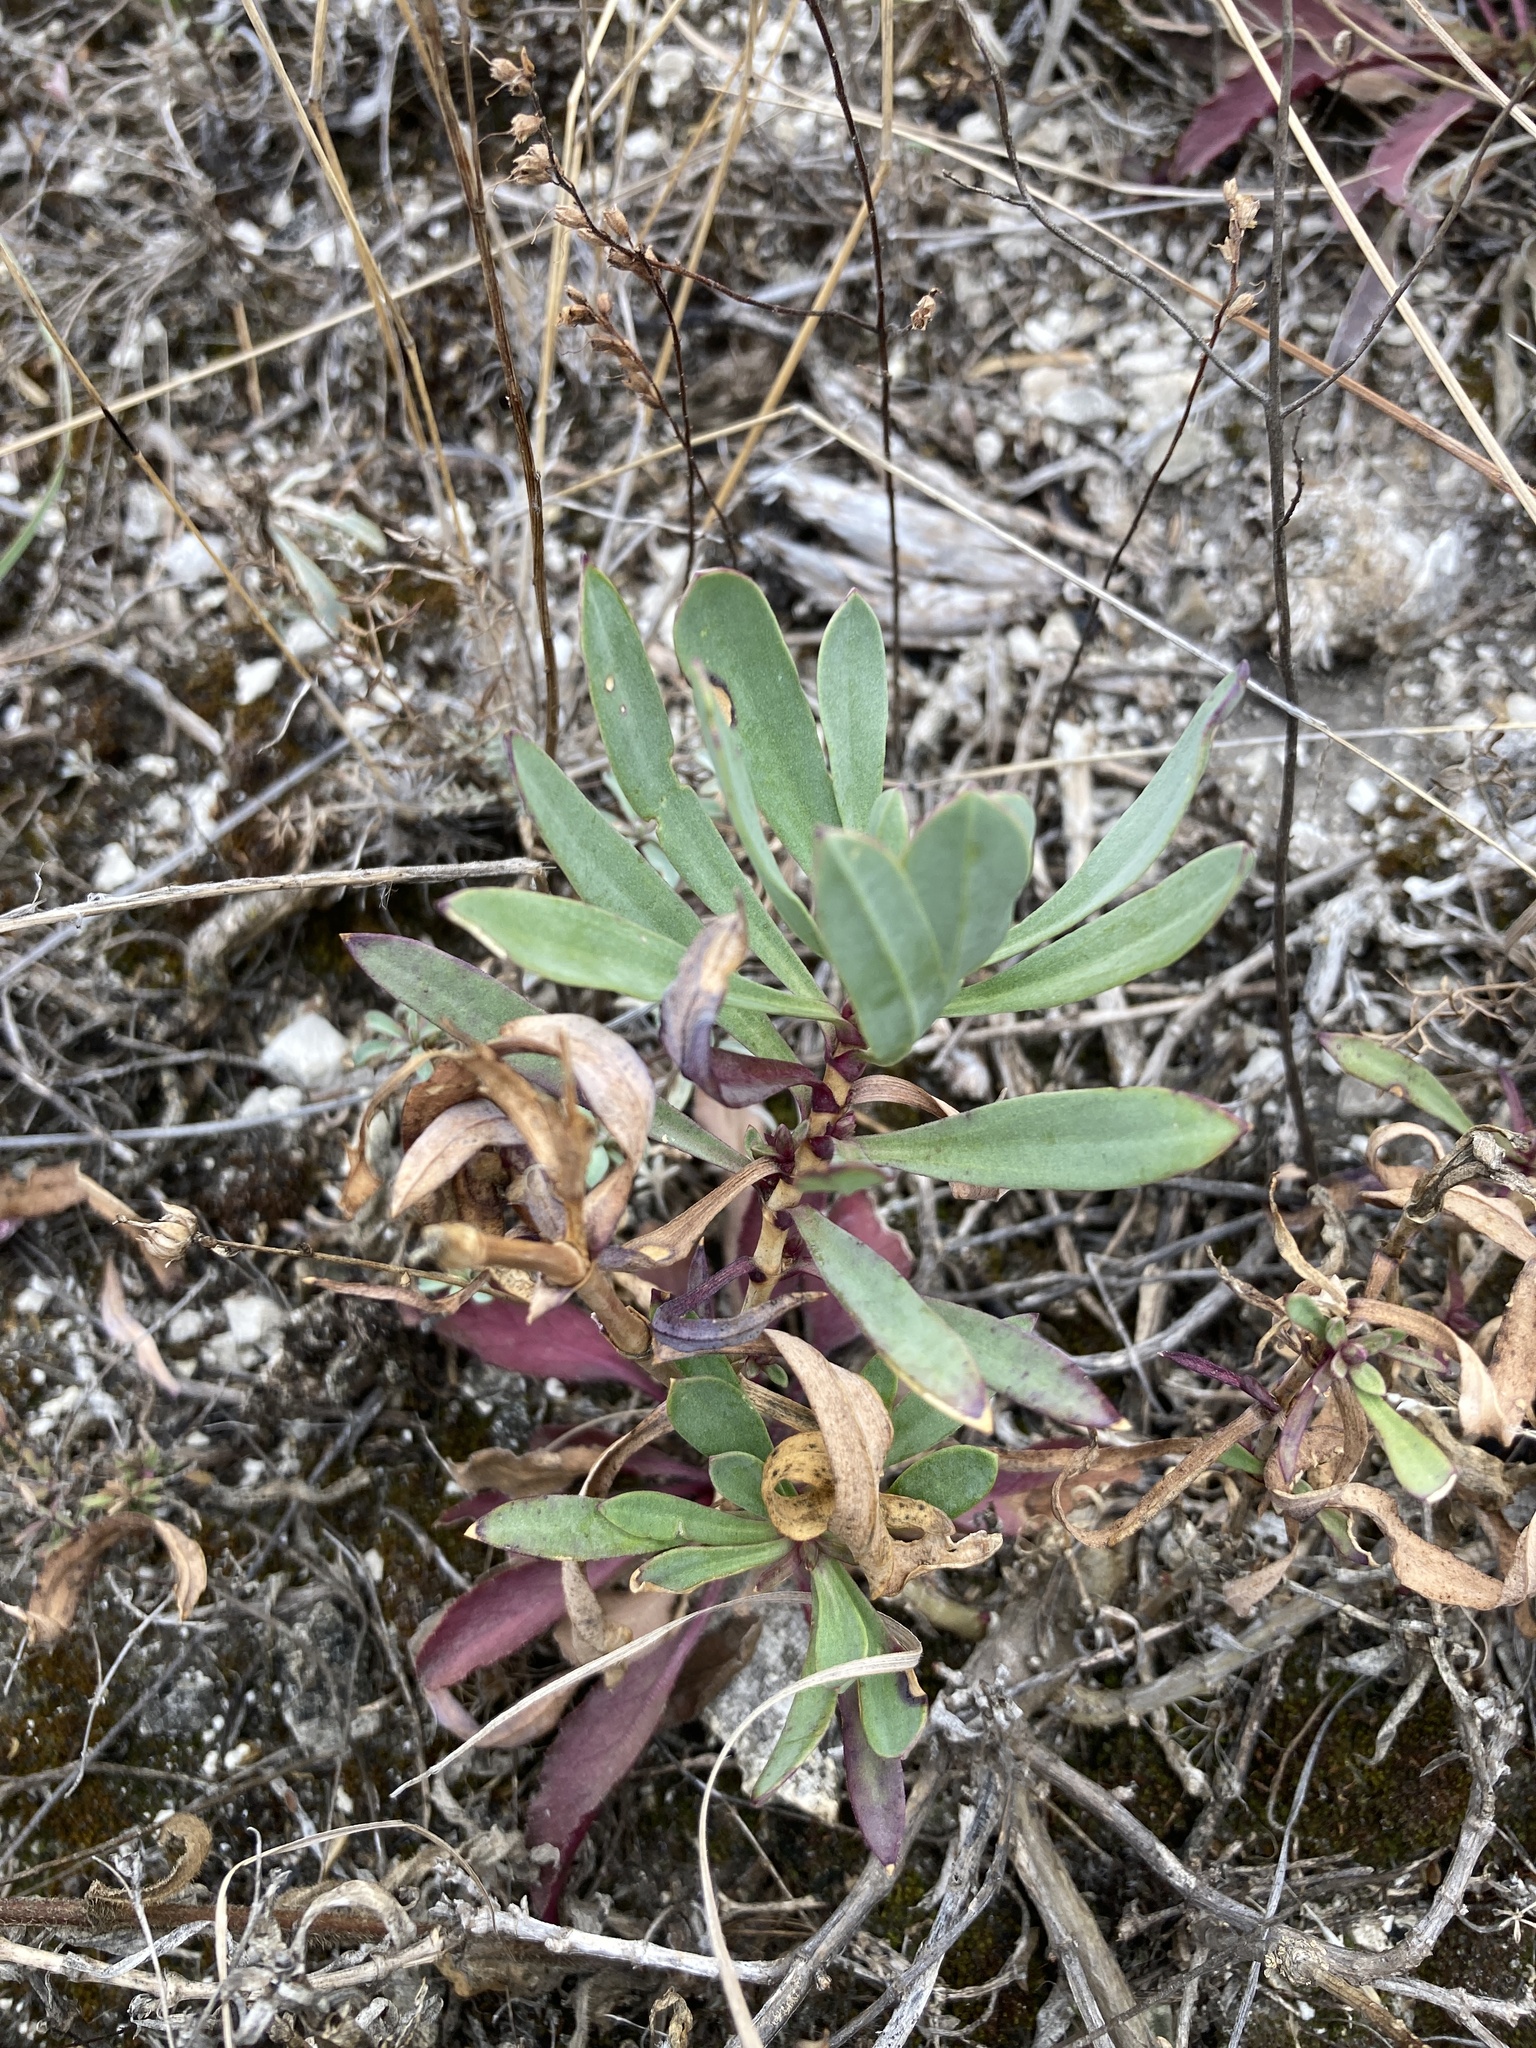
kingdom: Plantae
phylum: Tracheophyta
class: Magnoliopsida
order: Caryophyllales
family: Caryophyllaceae
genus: Gypsophila
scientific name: Gypsophila altissima
